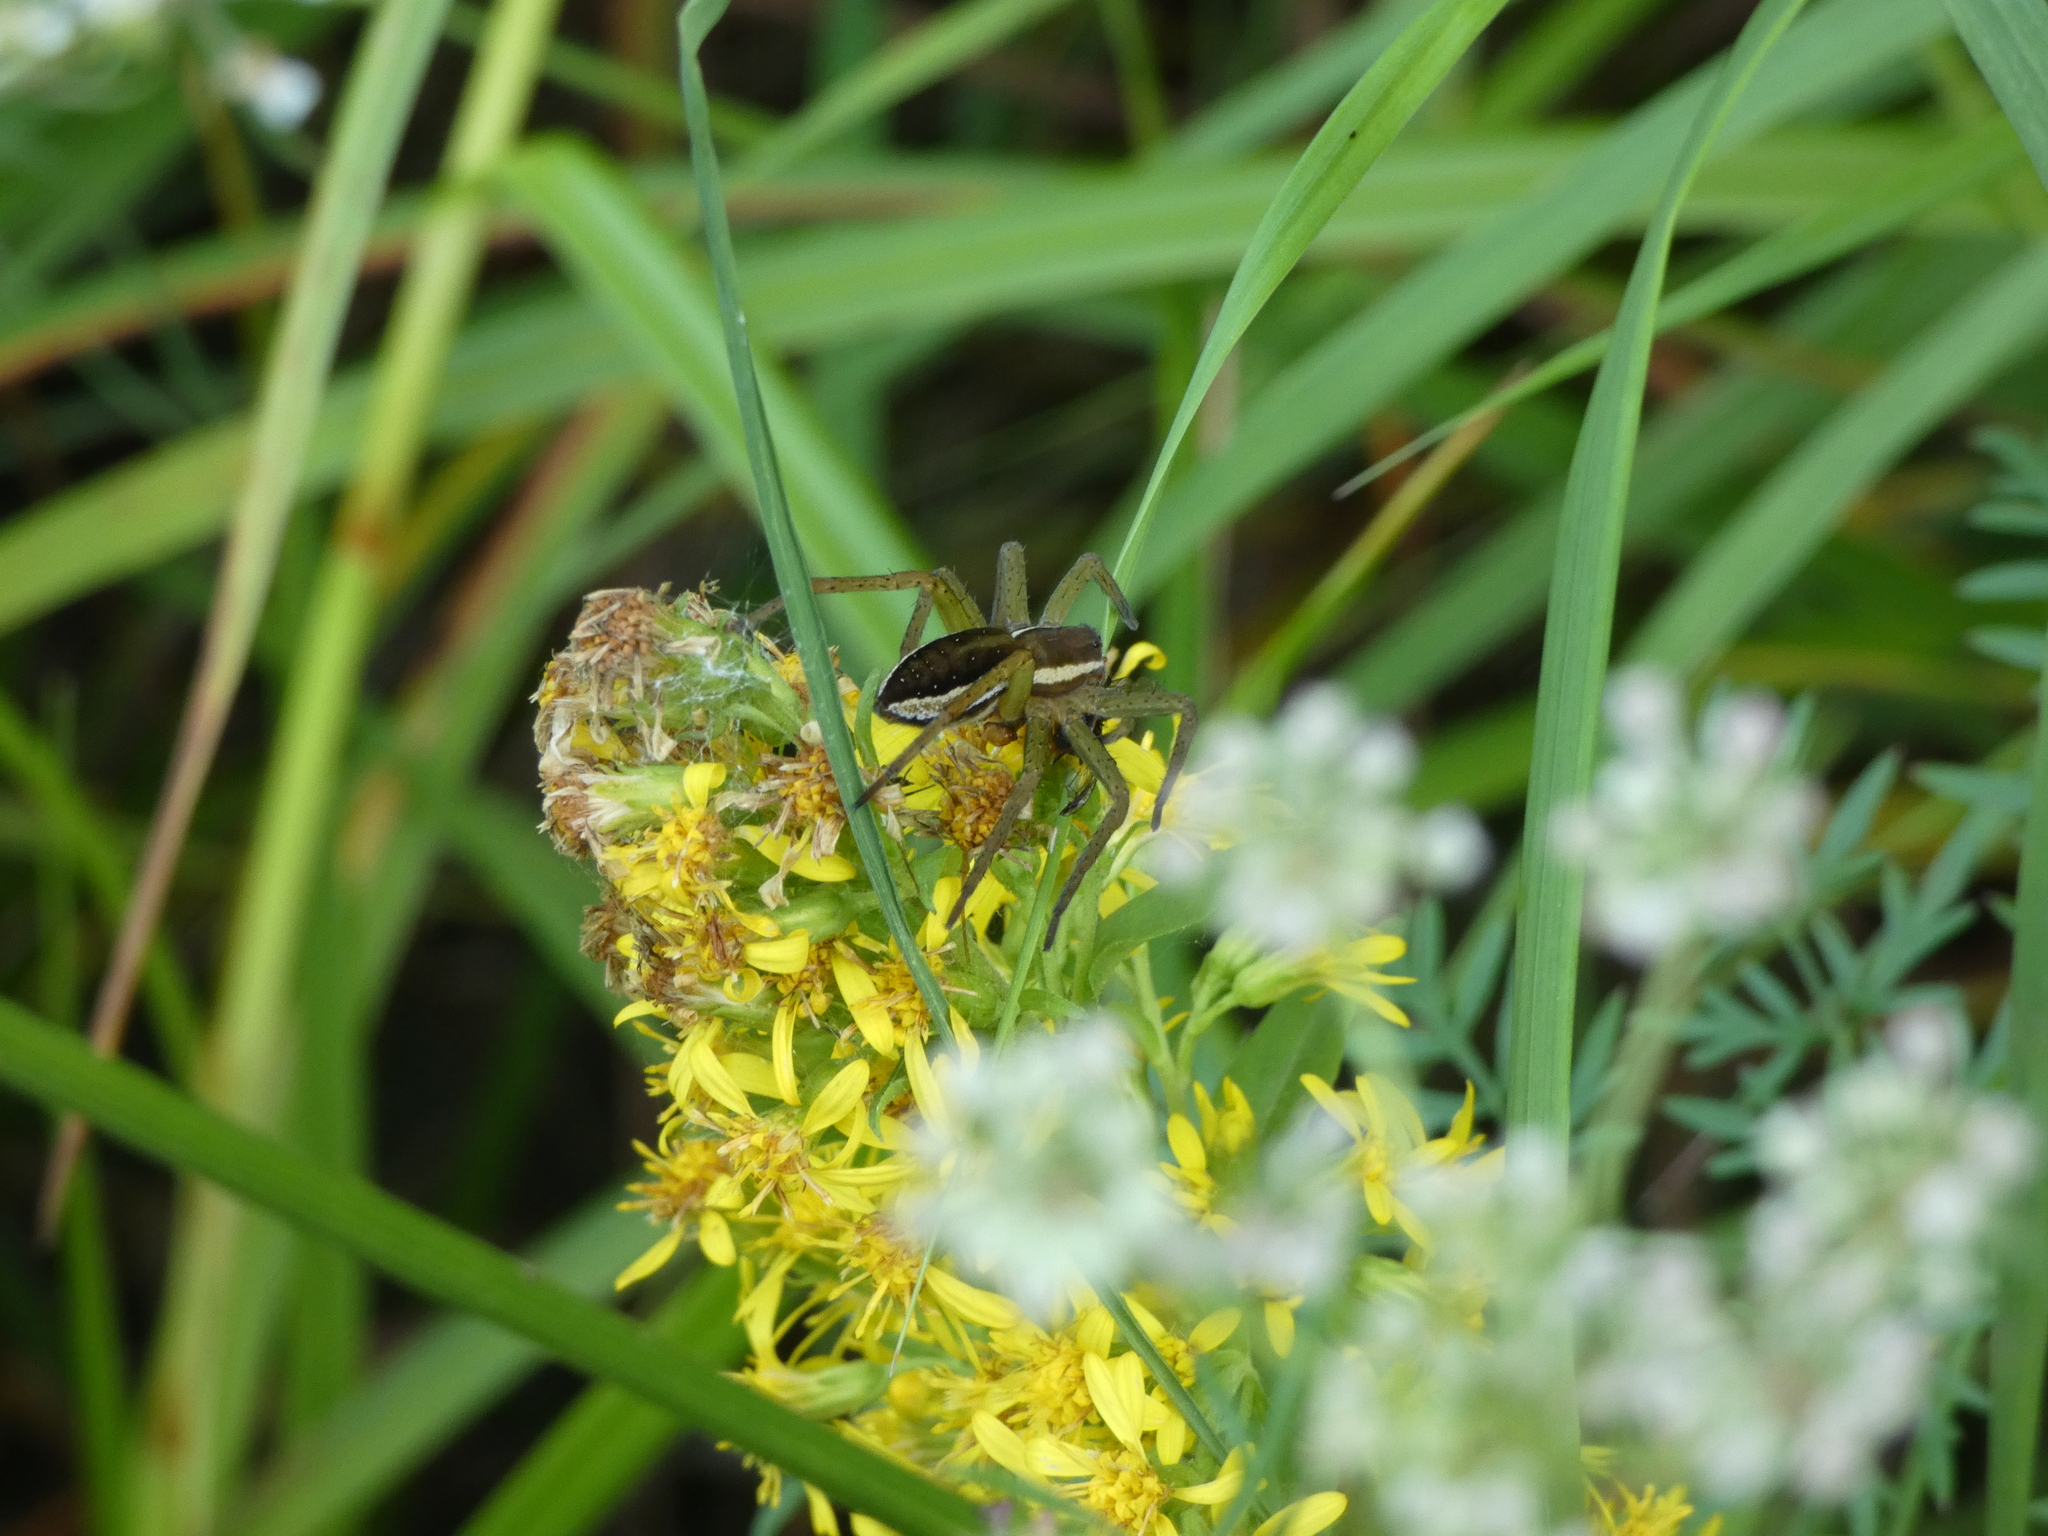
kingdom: Animalia
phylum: Arthropoda
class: Arachnida
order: Araneae
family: Pisauridae
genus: Dolomedes
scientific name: Dolomedes
